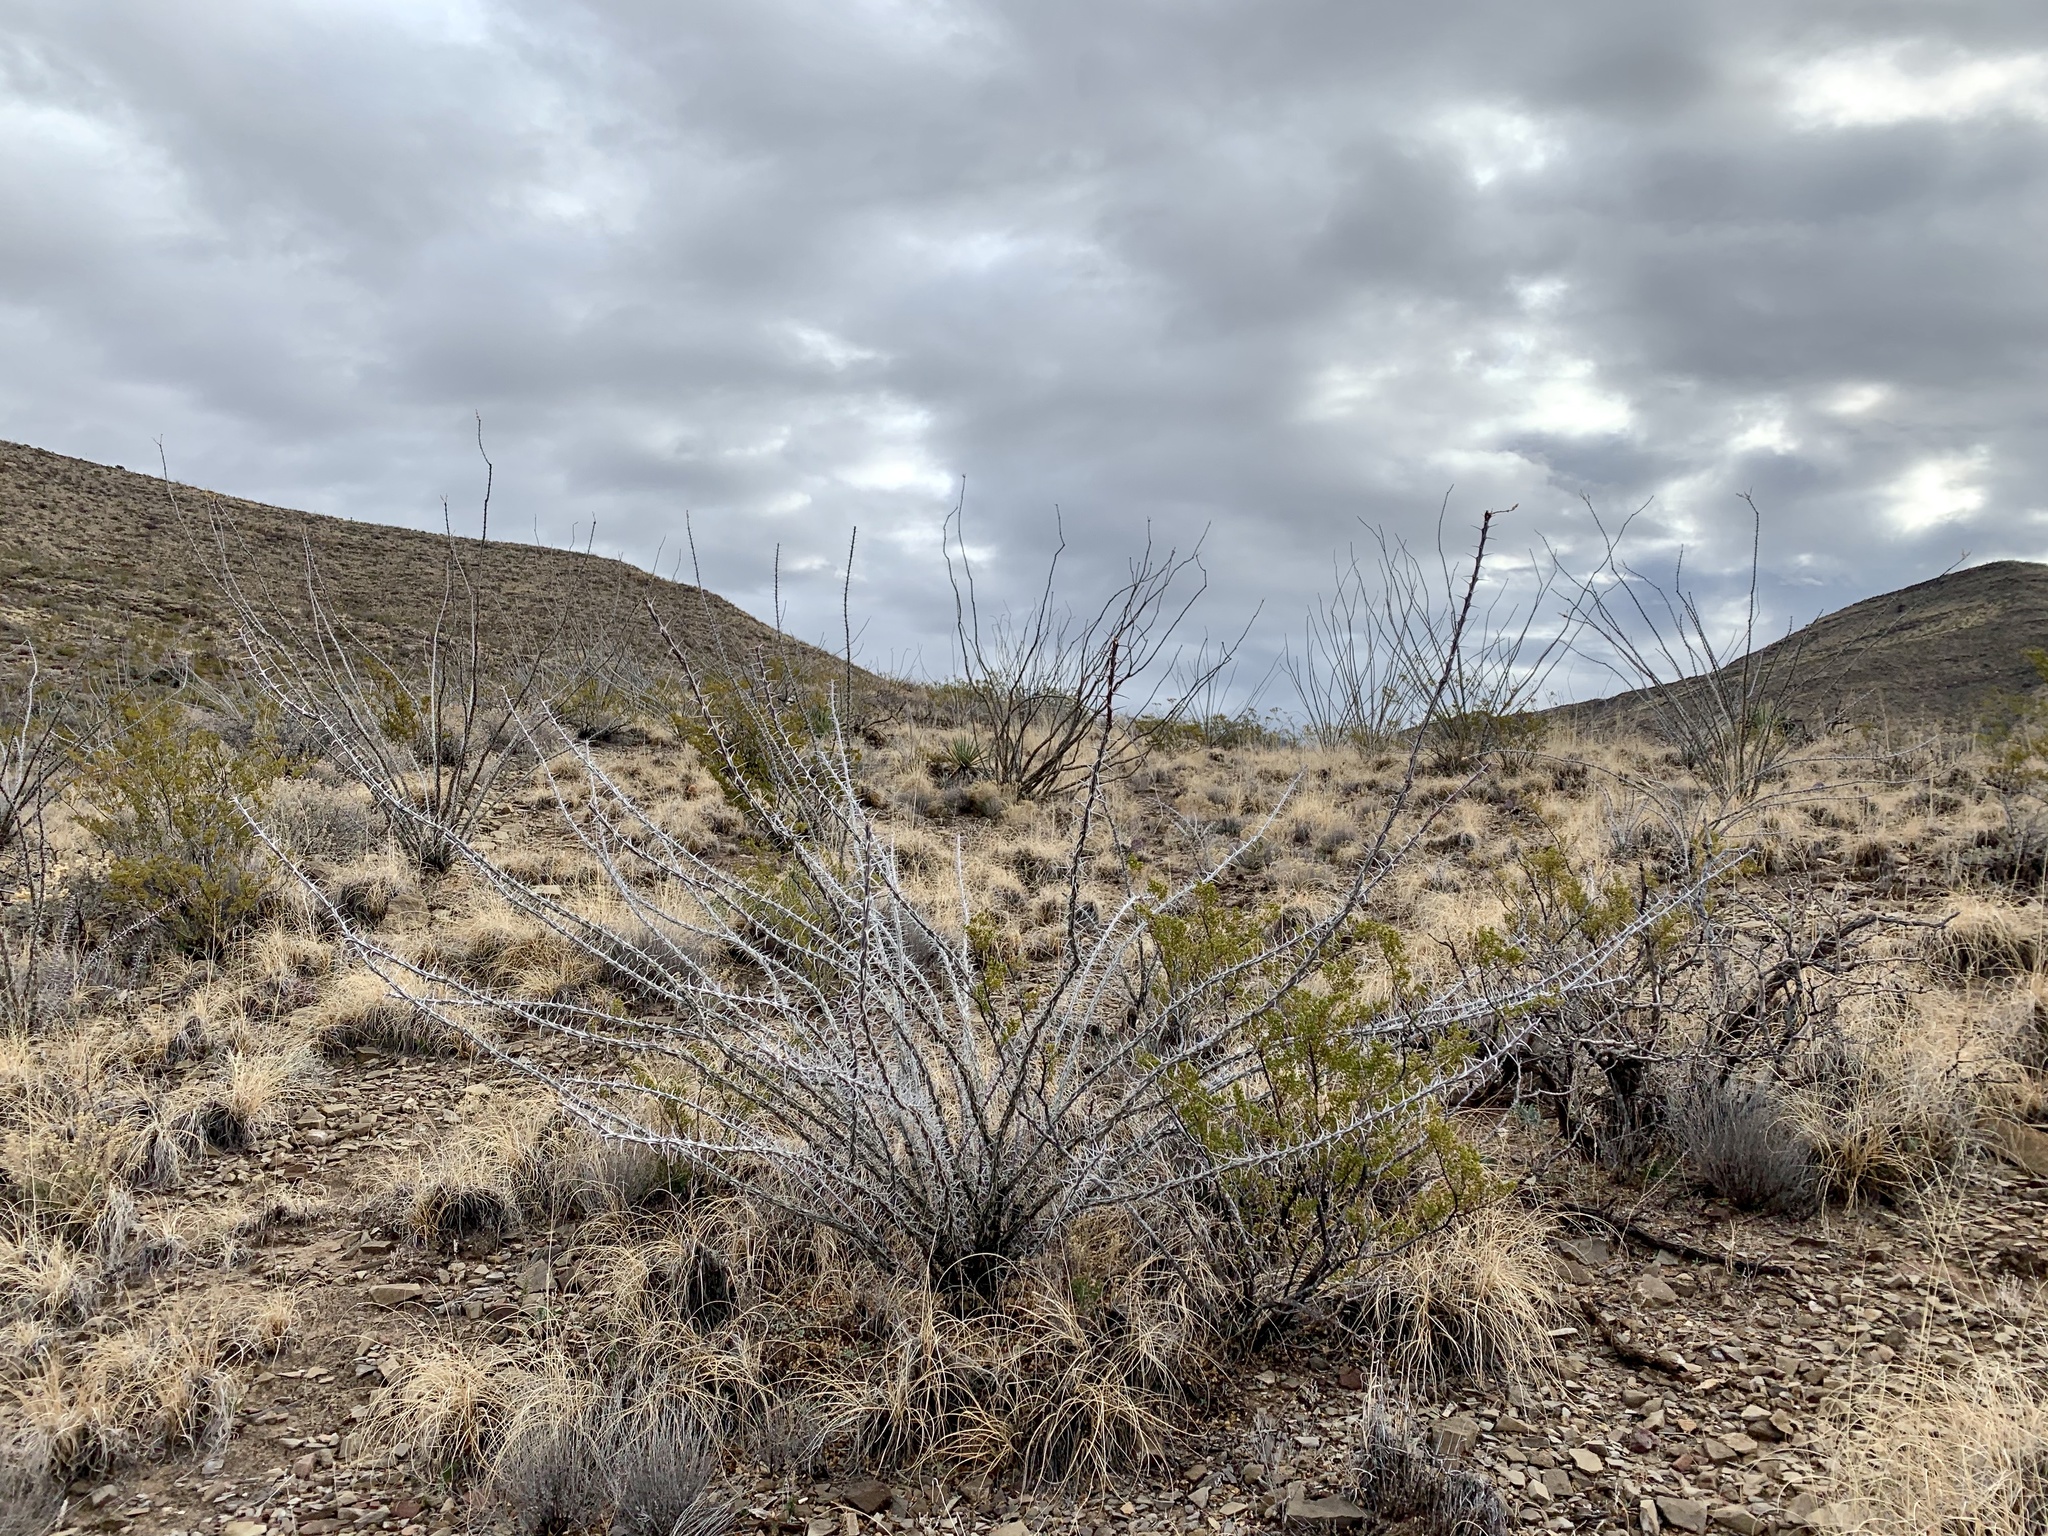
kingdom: Plantae
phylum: Tracheophyta
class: Magnoliopsida
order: Ericales
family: Fouquieriaceae
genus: Fouquieria
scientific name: Fouquieria splendens
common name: Vine-cactus
